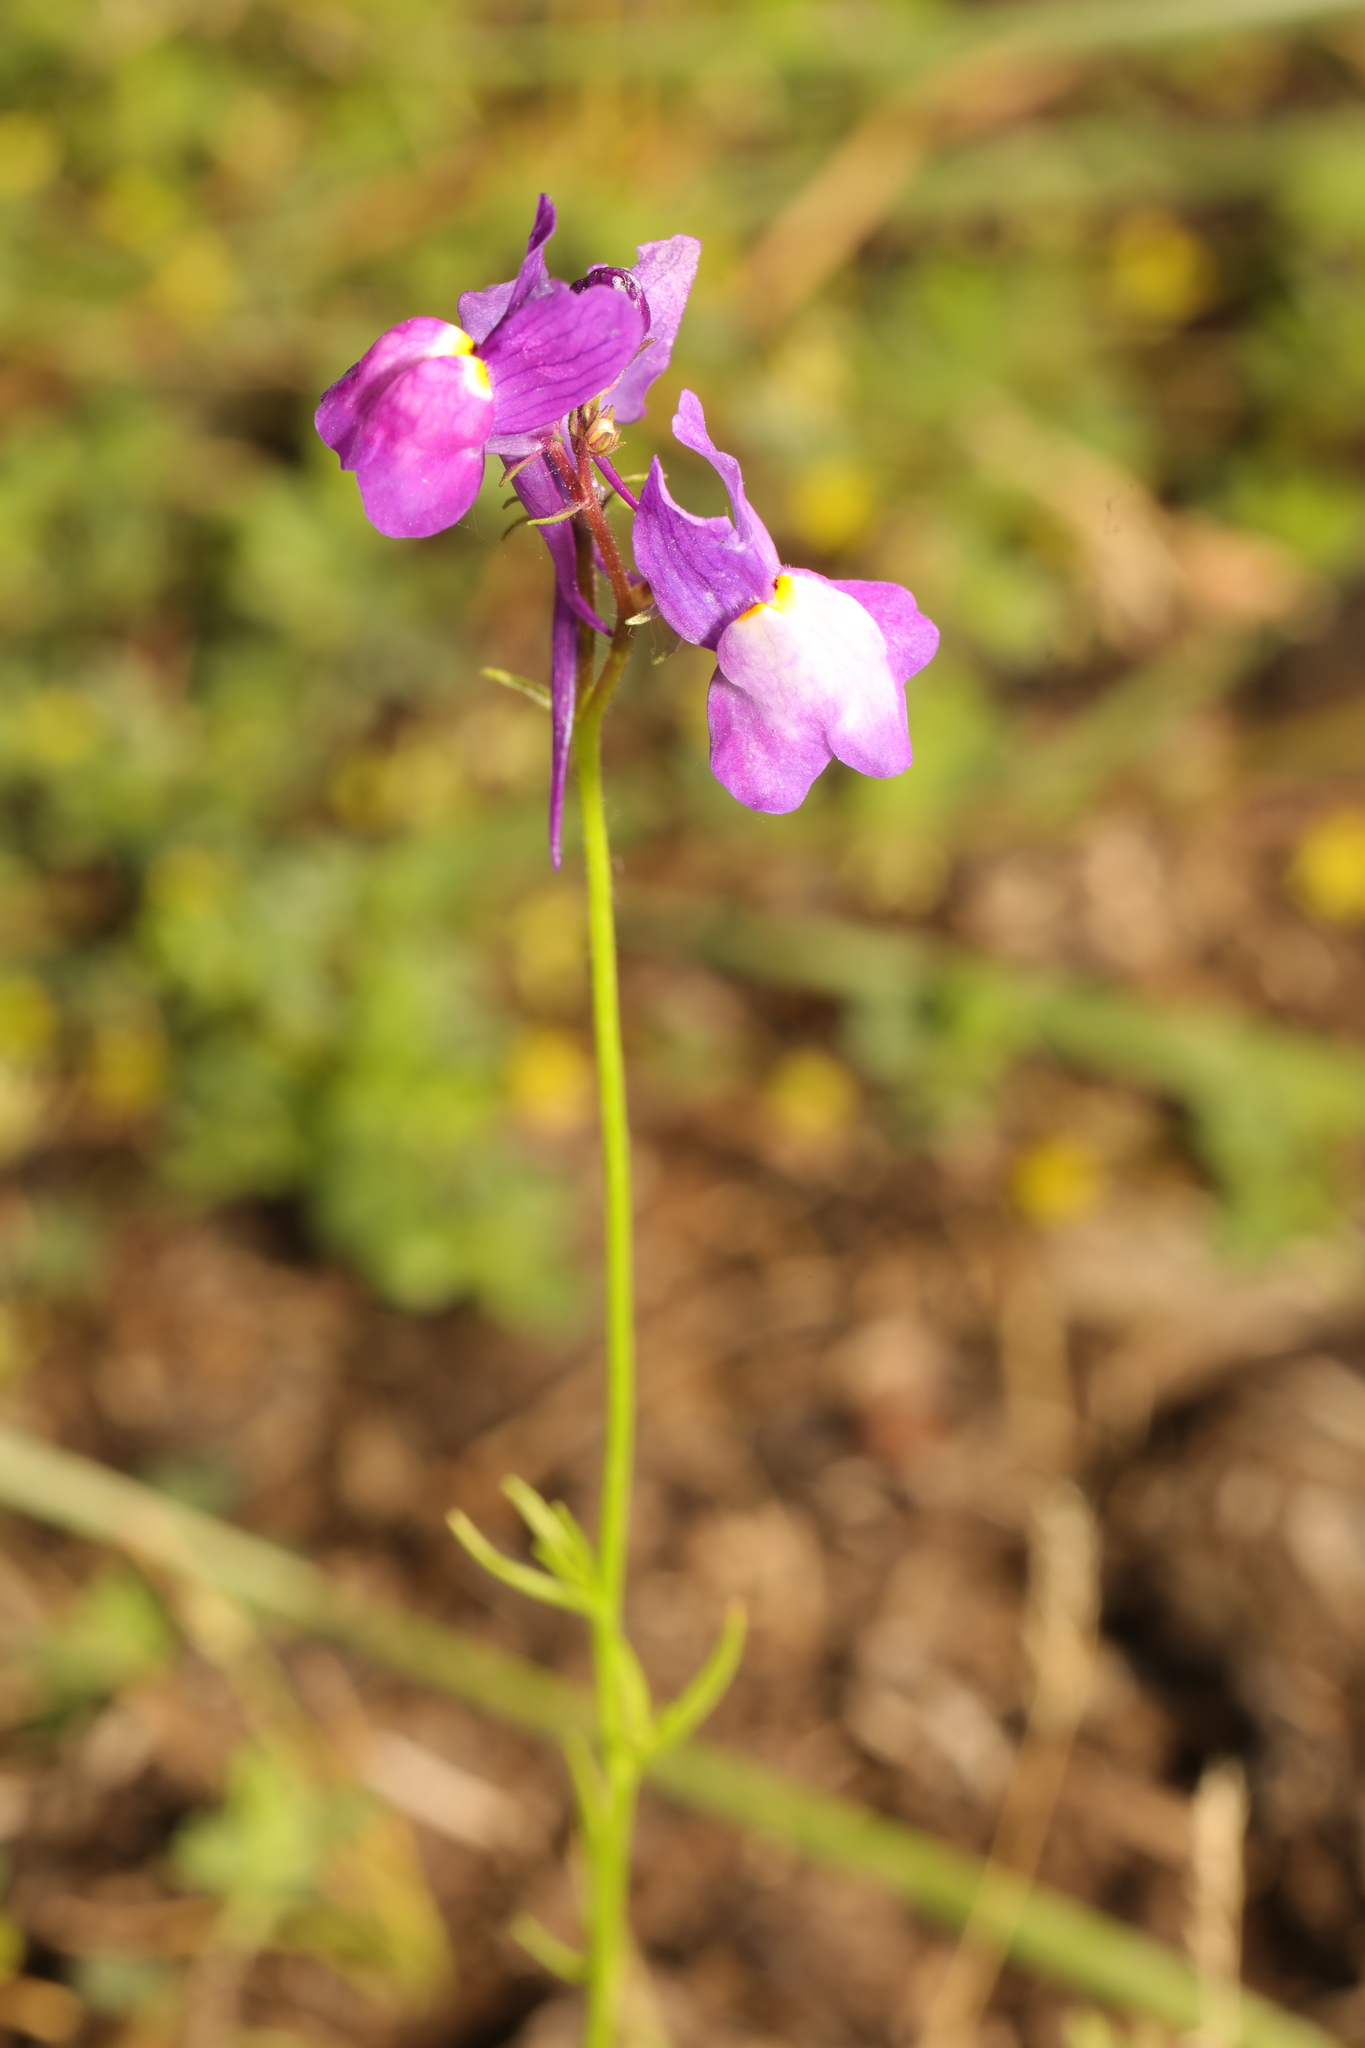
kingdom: Plantae
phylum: Tracheophyta
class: Magnoliopsida
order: Lamiales
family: Plantaginaceae
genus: Linaria
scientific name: Linaria maroccana
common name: Moroccan toadflax
